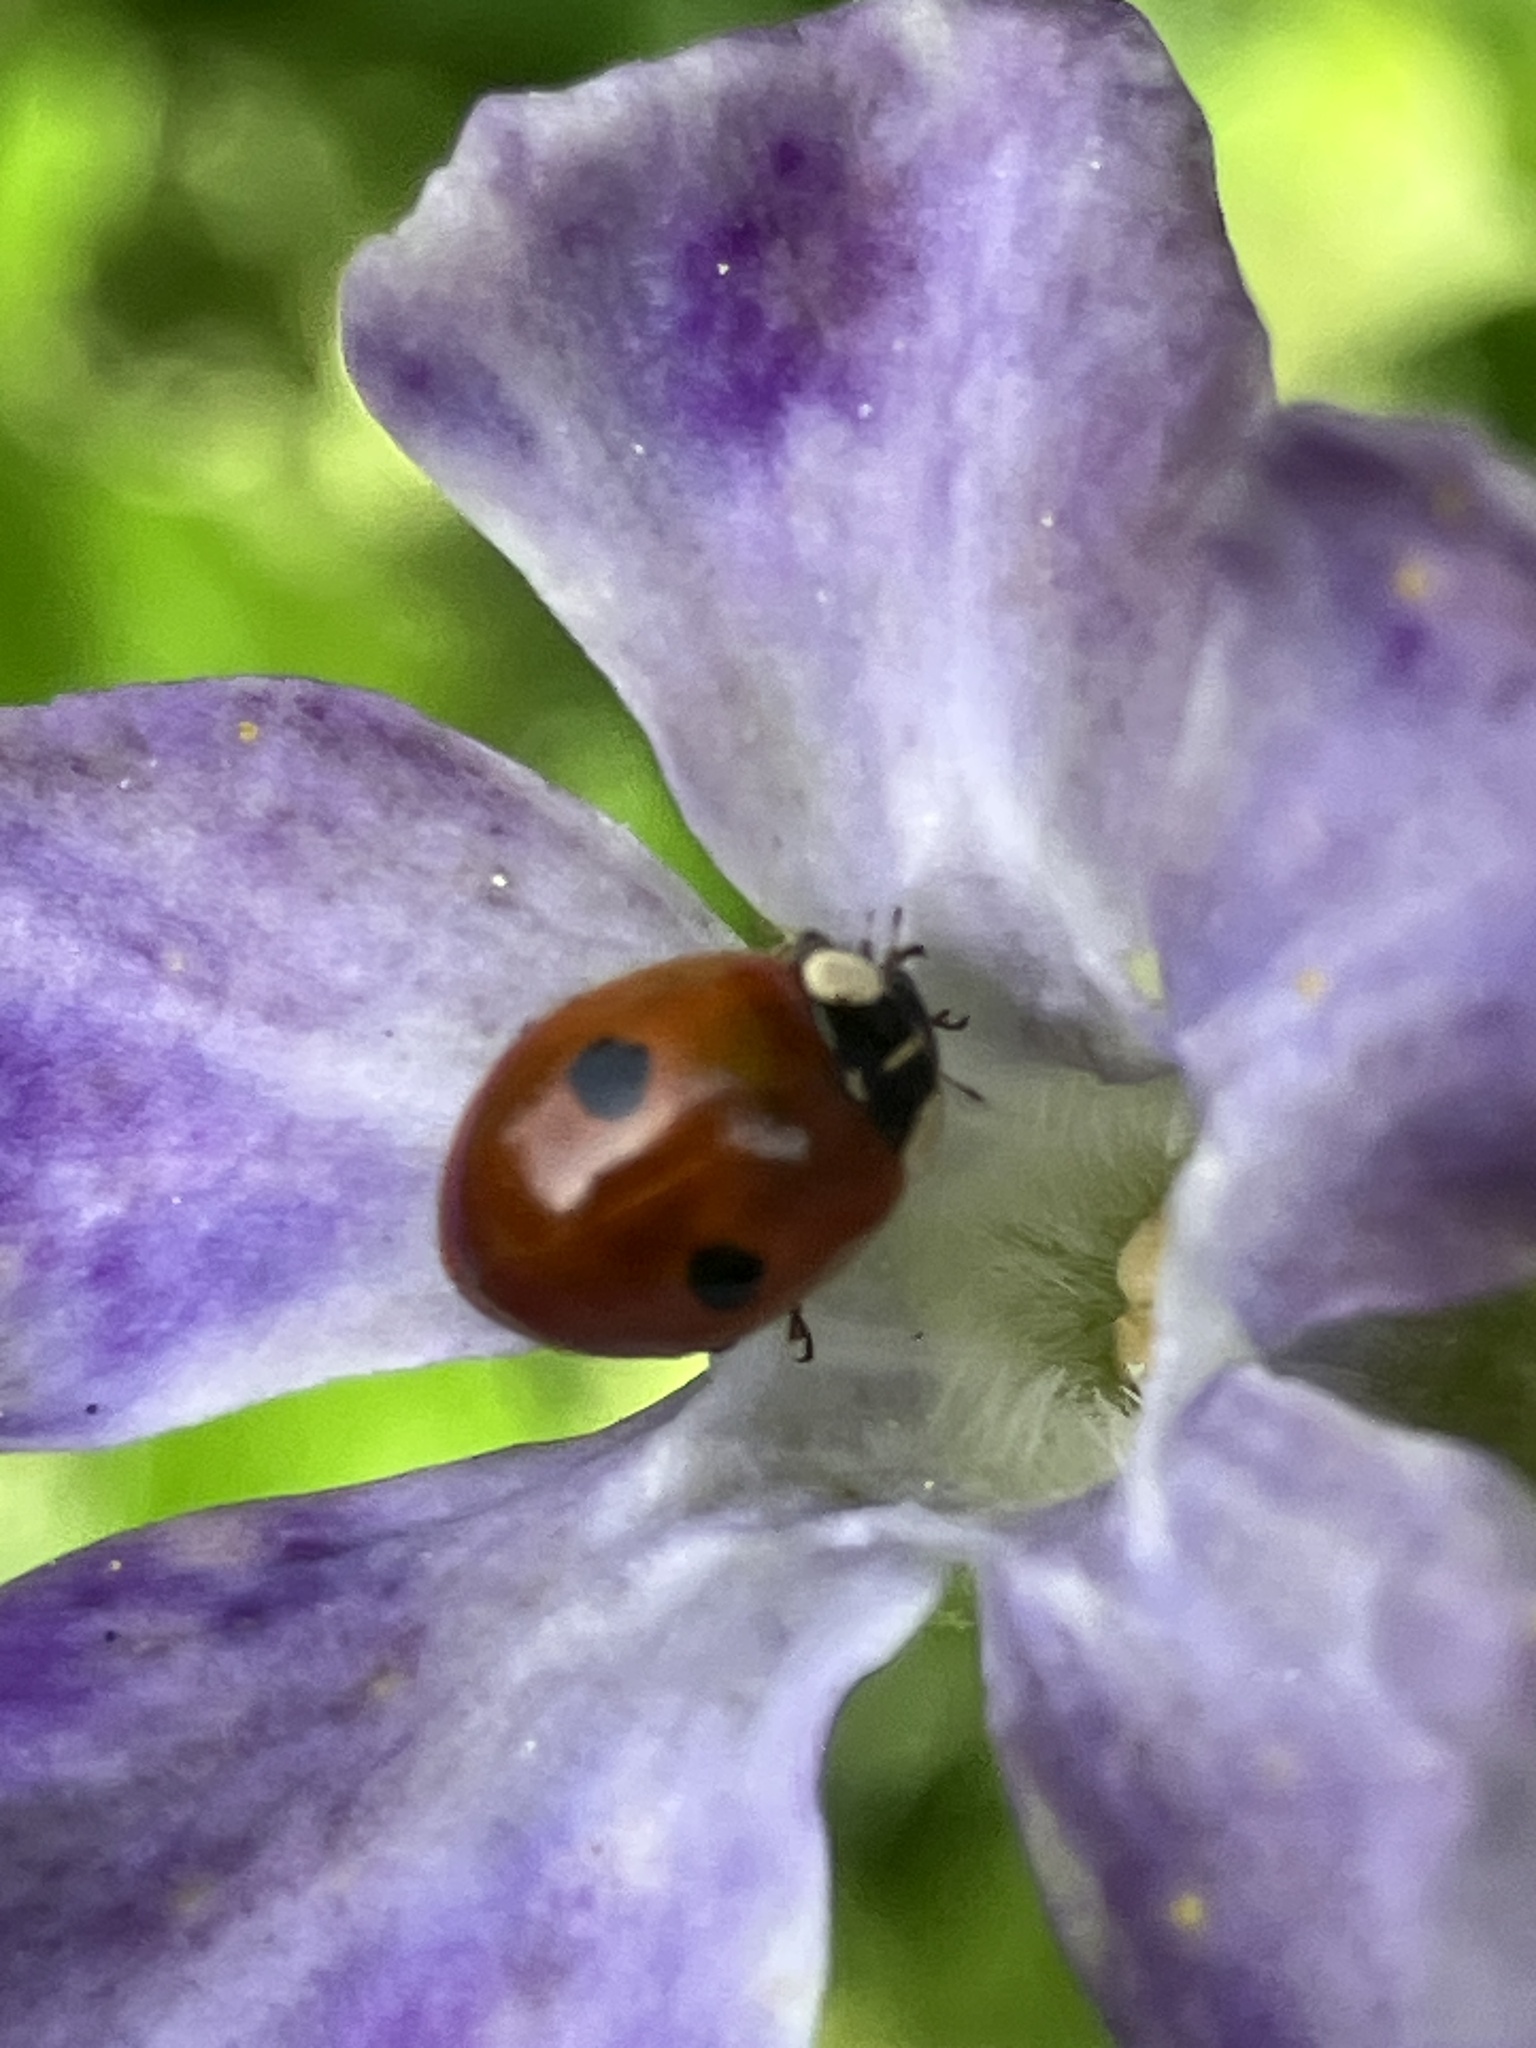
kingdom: Animalia
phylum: Arthropoda
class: Insecta
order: Coleoptera
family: Coccinellidae
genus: Adalia
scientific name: Adalia bipunctata
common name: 2-spot ladybird
